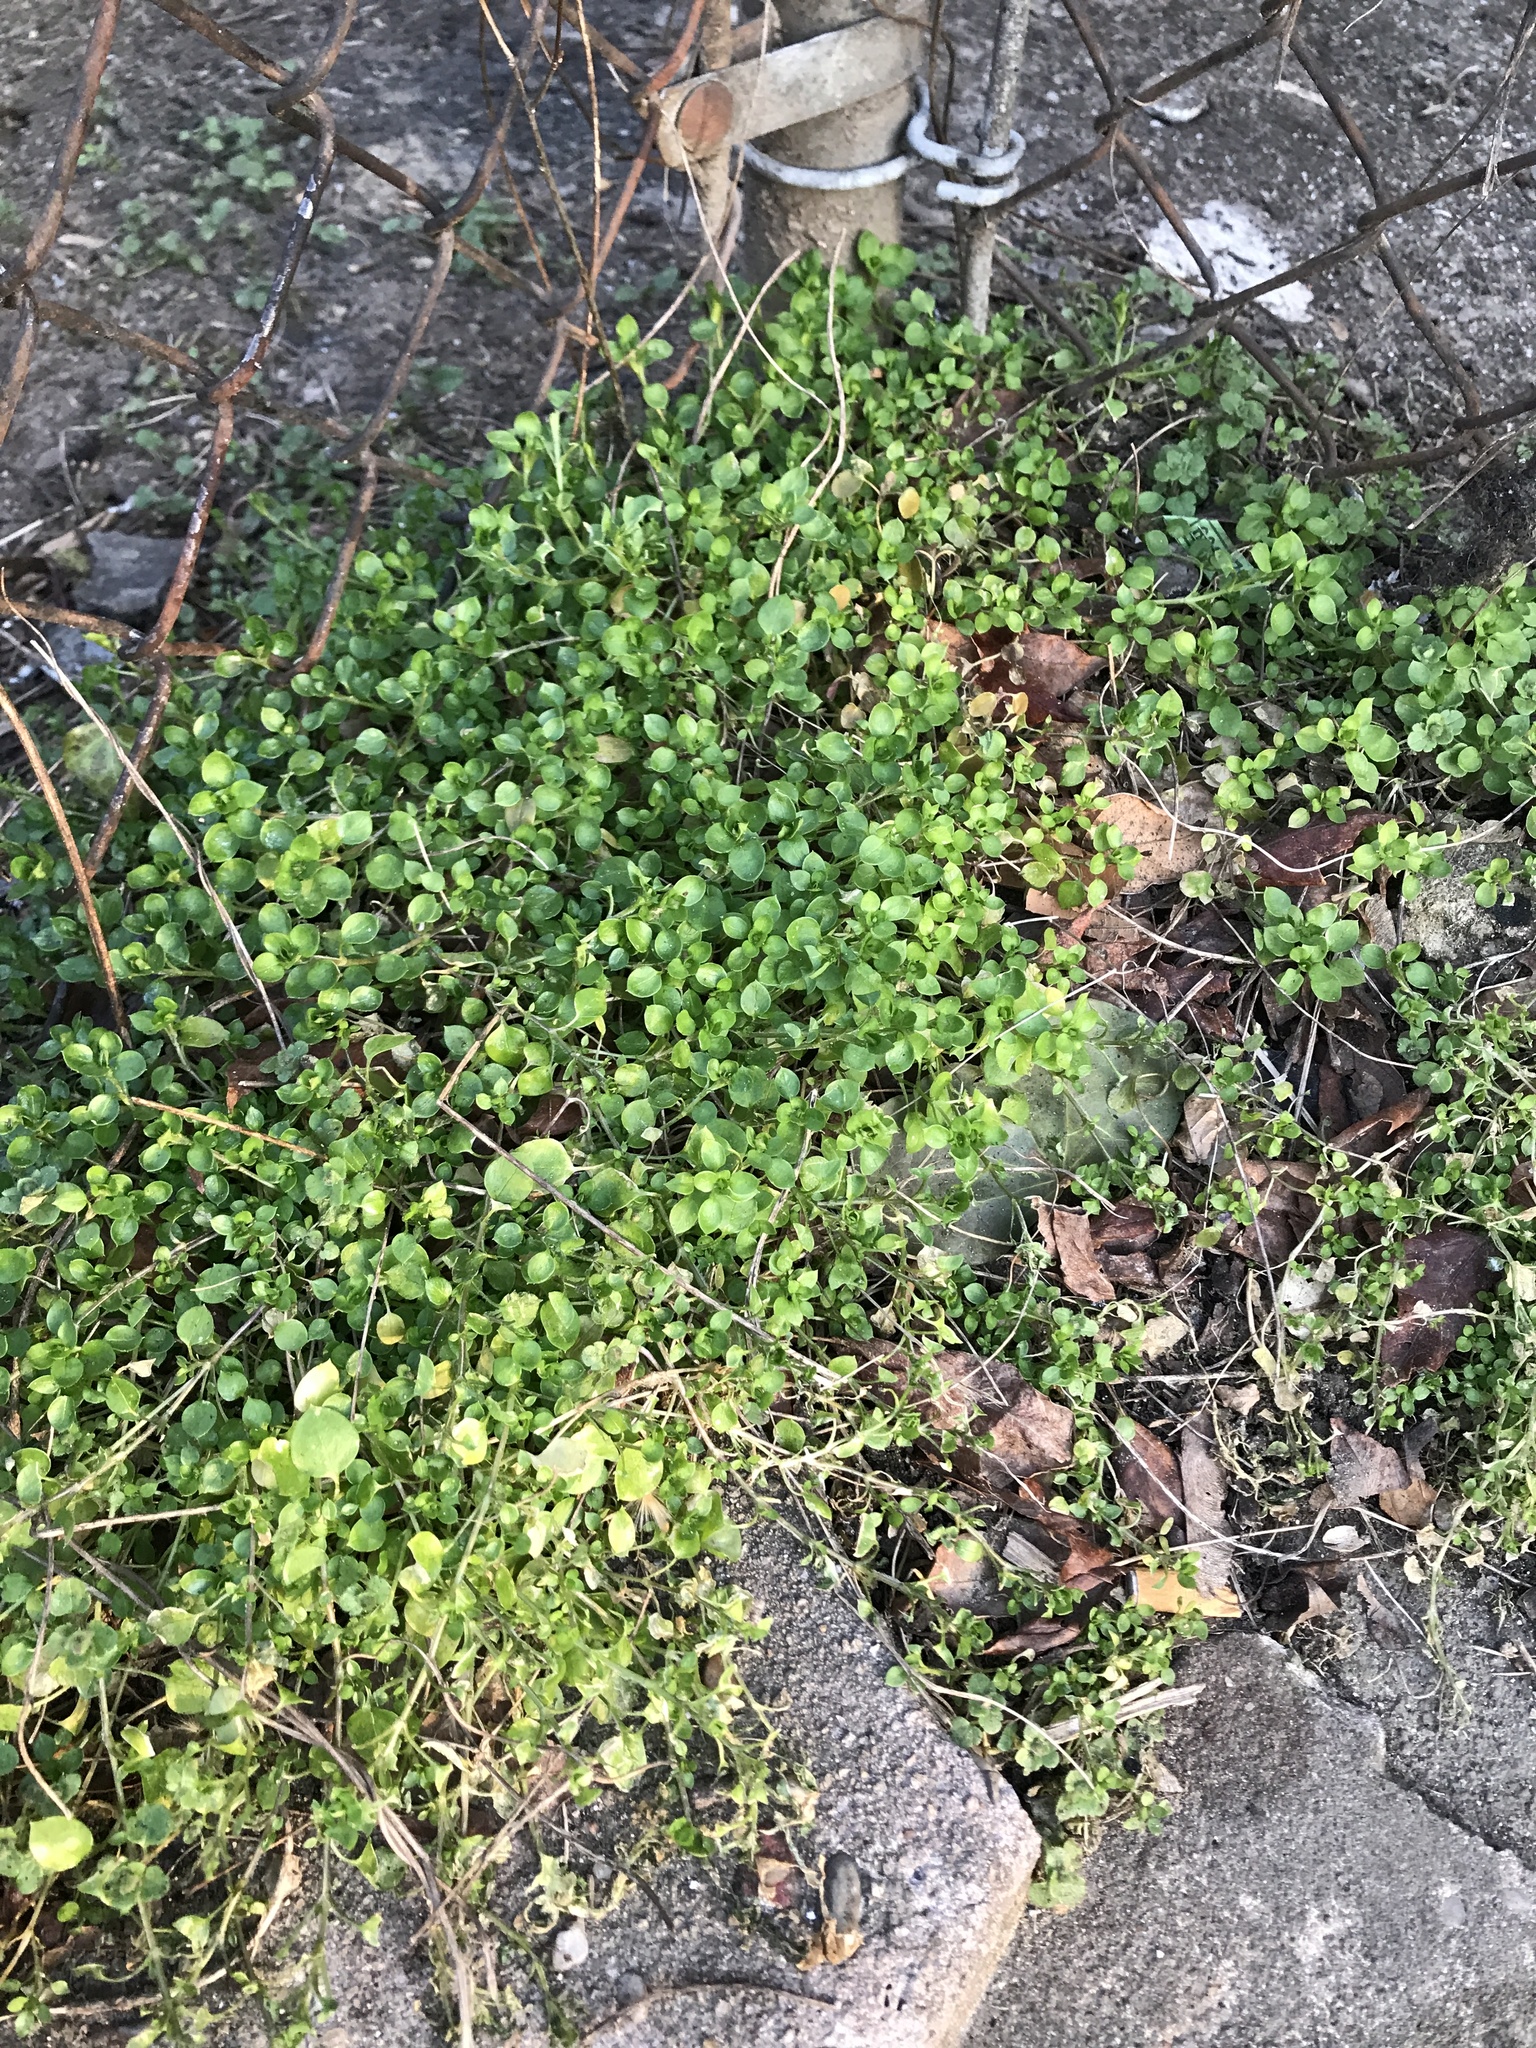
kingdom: Plantae
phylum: Tracheophyta
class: Magnoliopsida
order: Caryophyllales
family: Caryophyllaceae
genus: Stellaria
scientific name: Stellaria media
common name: Common chickweed
